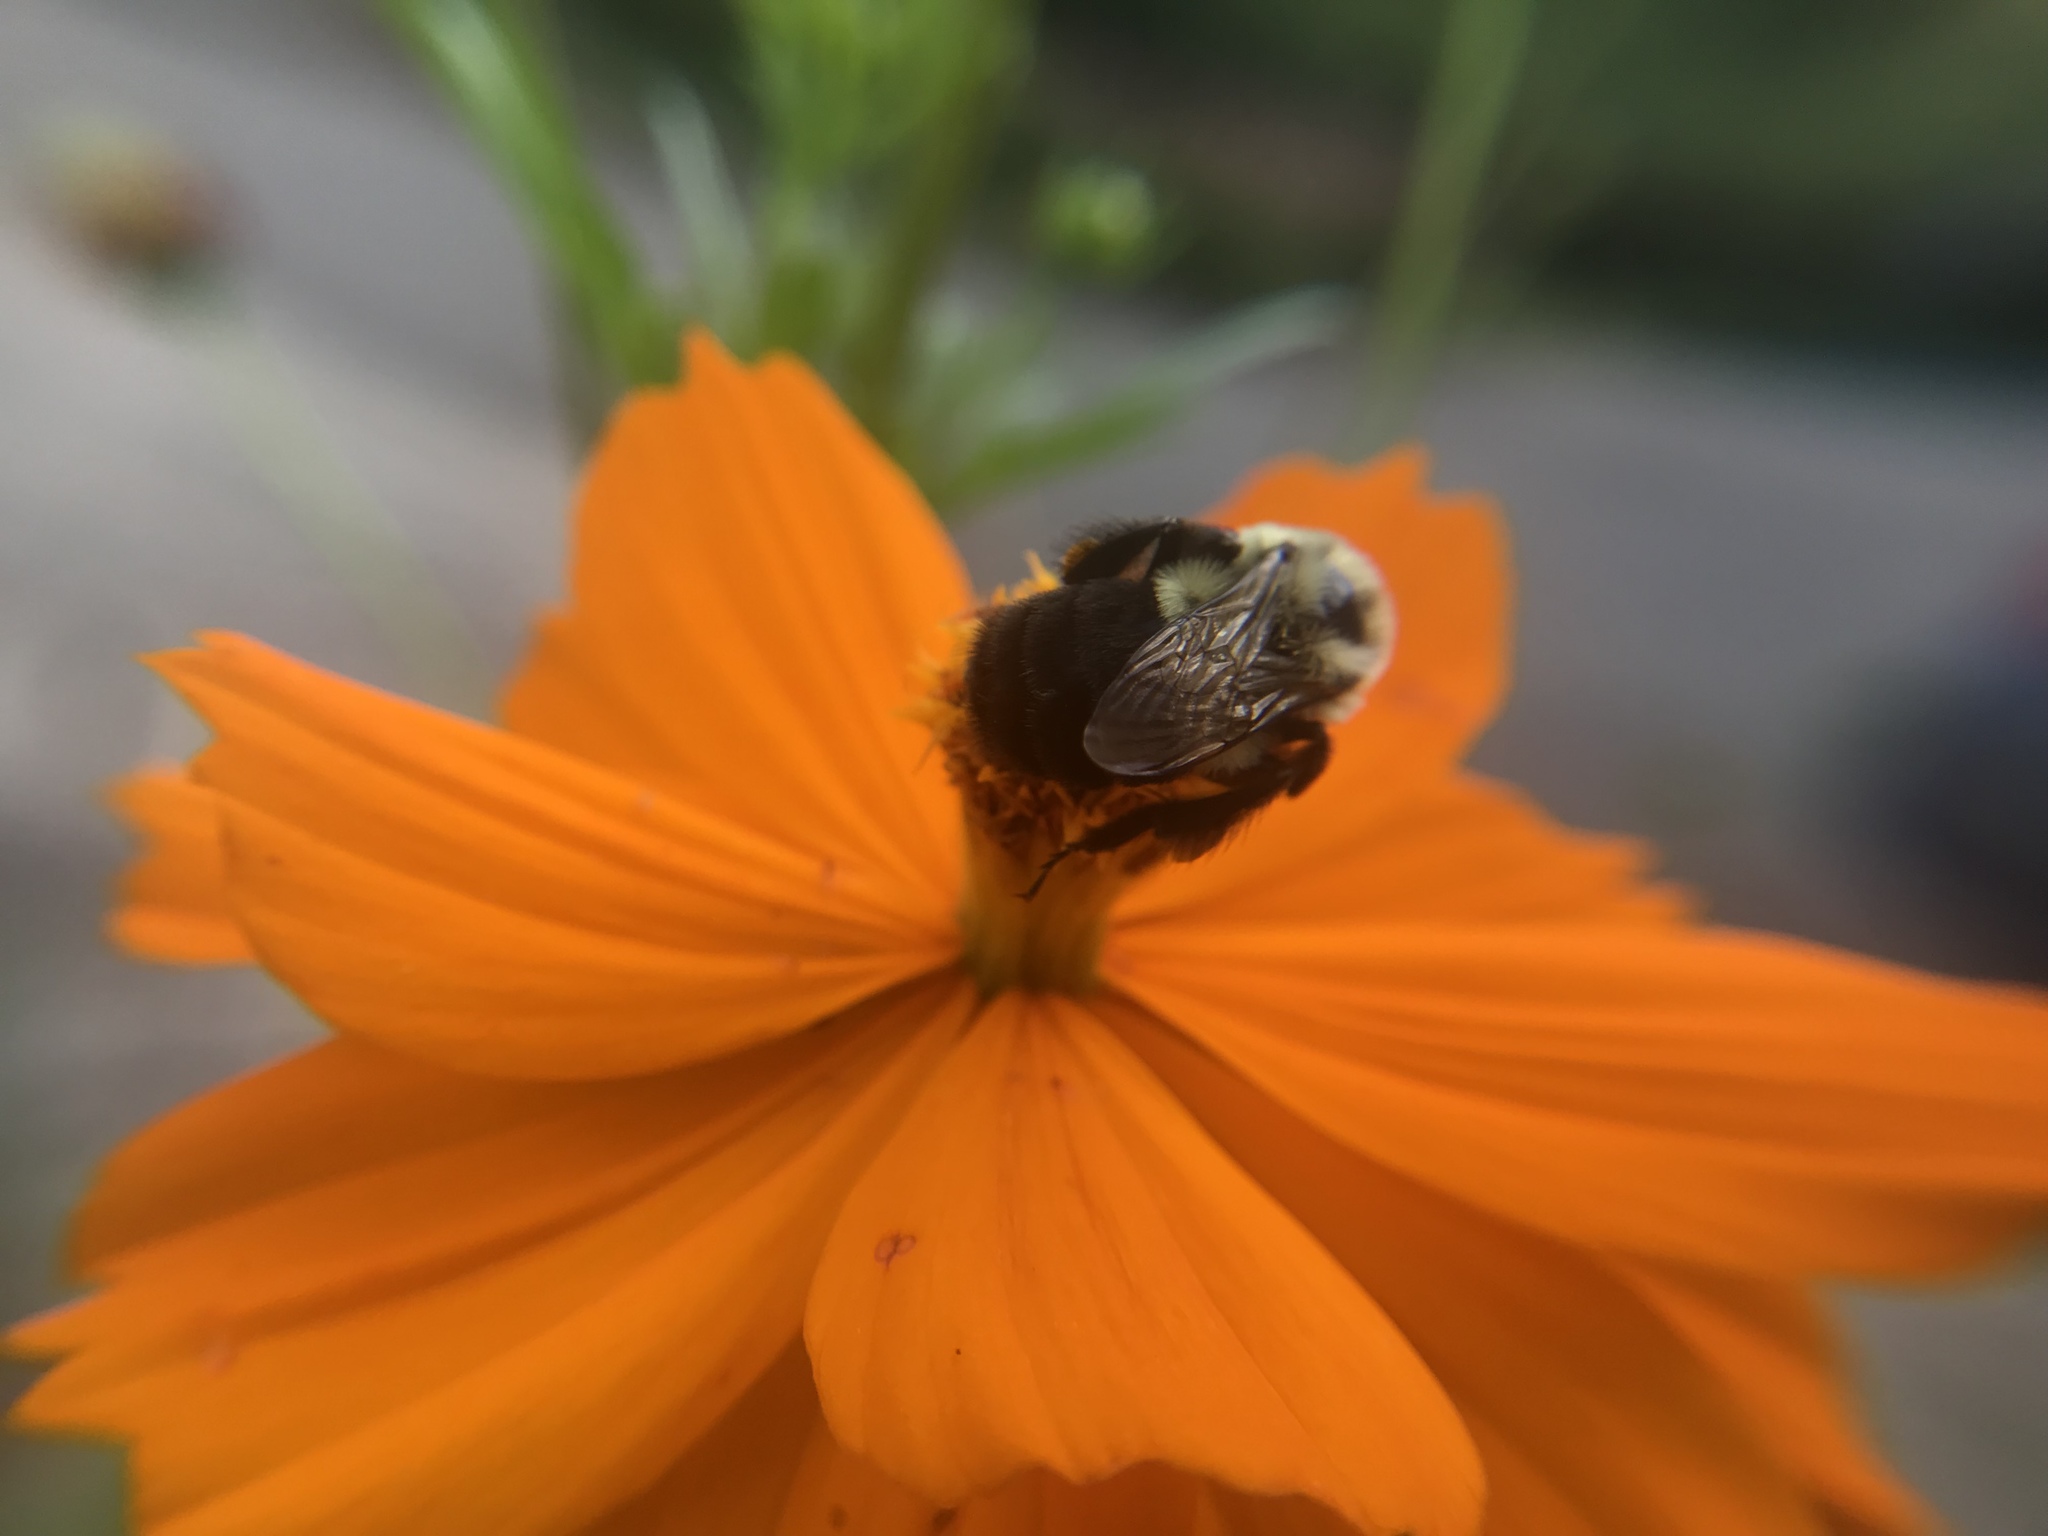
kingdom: Animalia
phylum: Arthropoda
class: Insecta
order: Hymenoptera
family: Apidae
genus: Bombus
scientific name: Bombus impatiens
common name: Common eastern bumble bee
